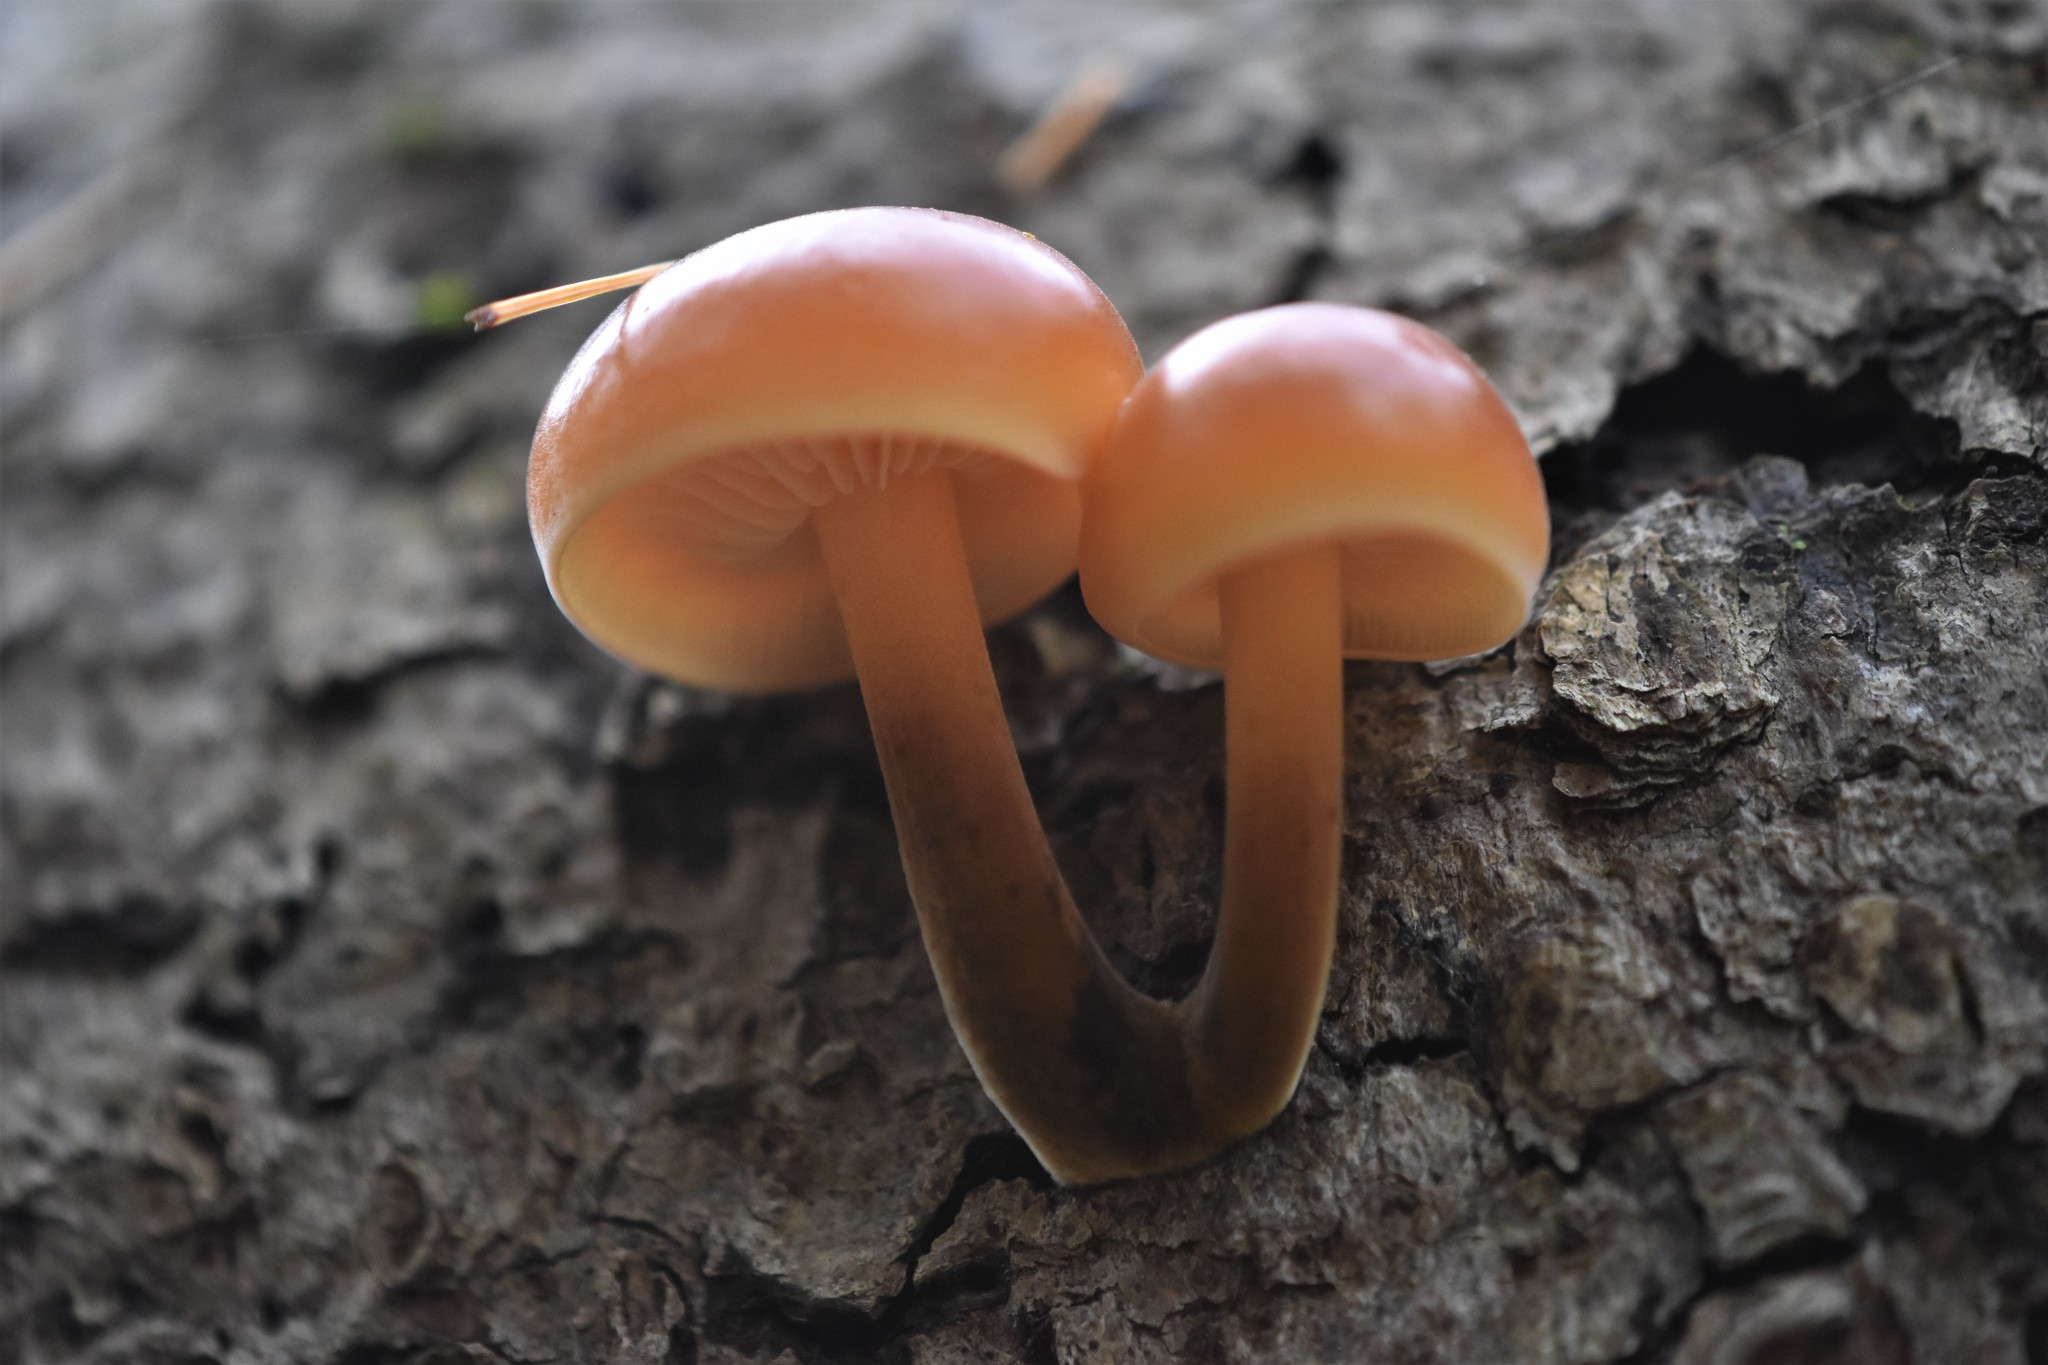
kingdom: Fungi
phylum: Basidiomycota
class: Agaricomycetes
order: Agaricales
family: Physalacriaceae
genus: Flammulina
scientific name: Flammulina velutipes
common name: Velvet shank
